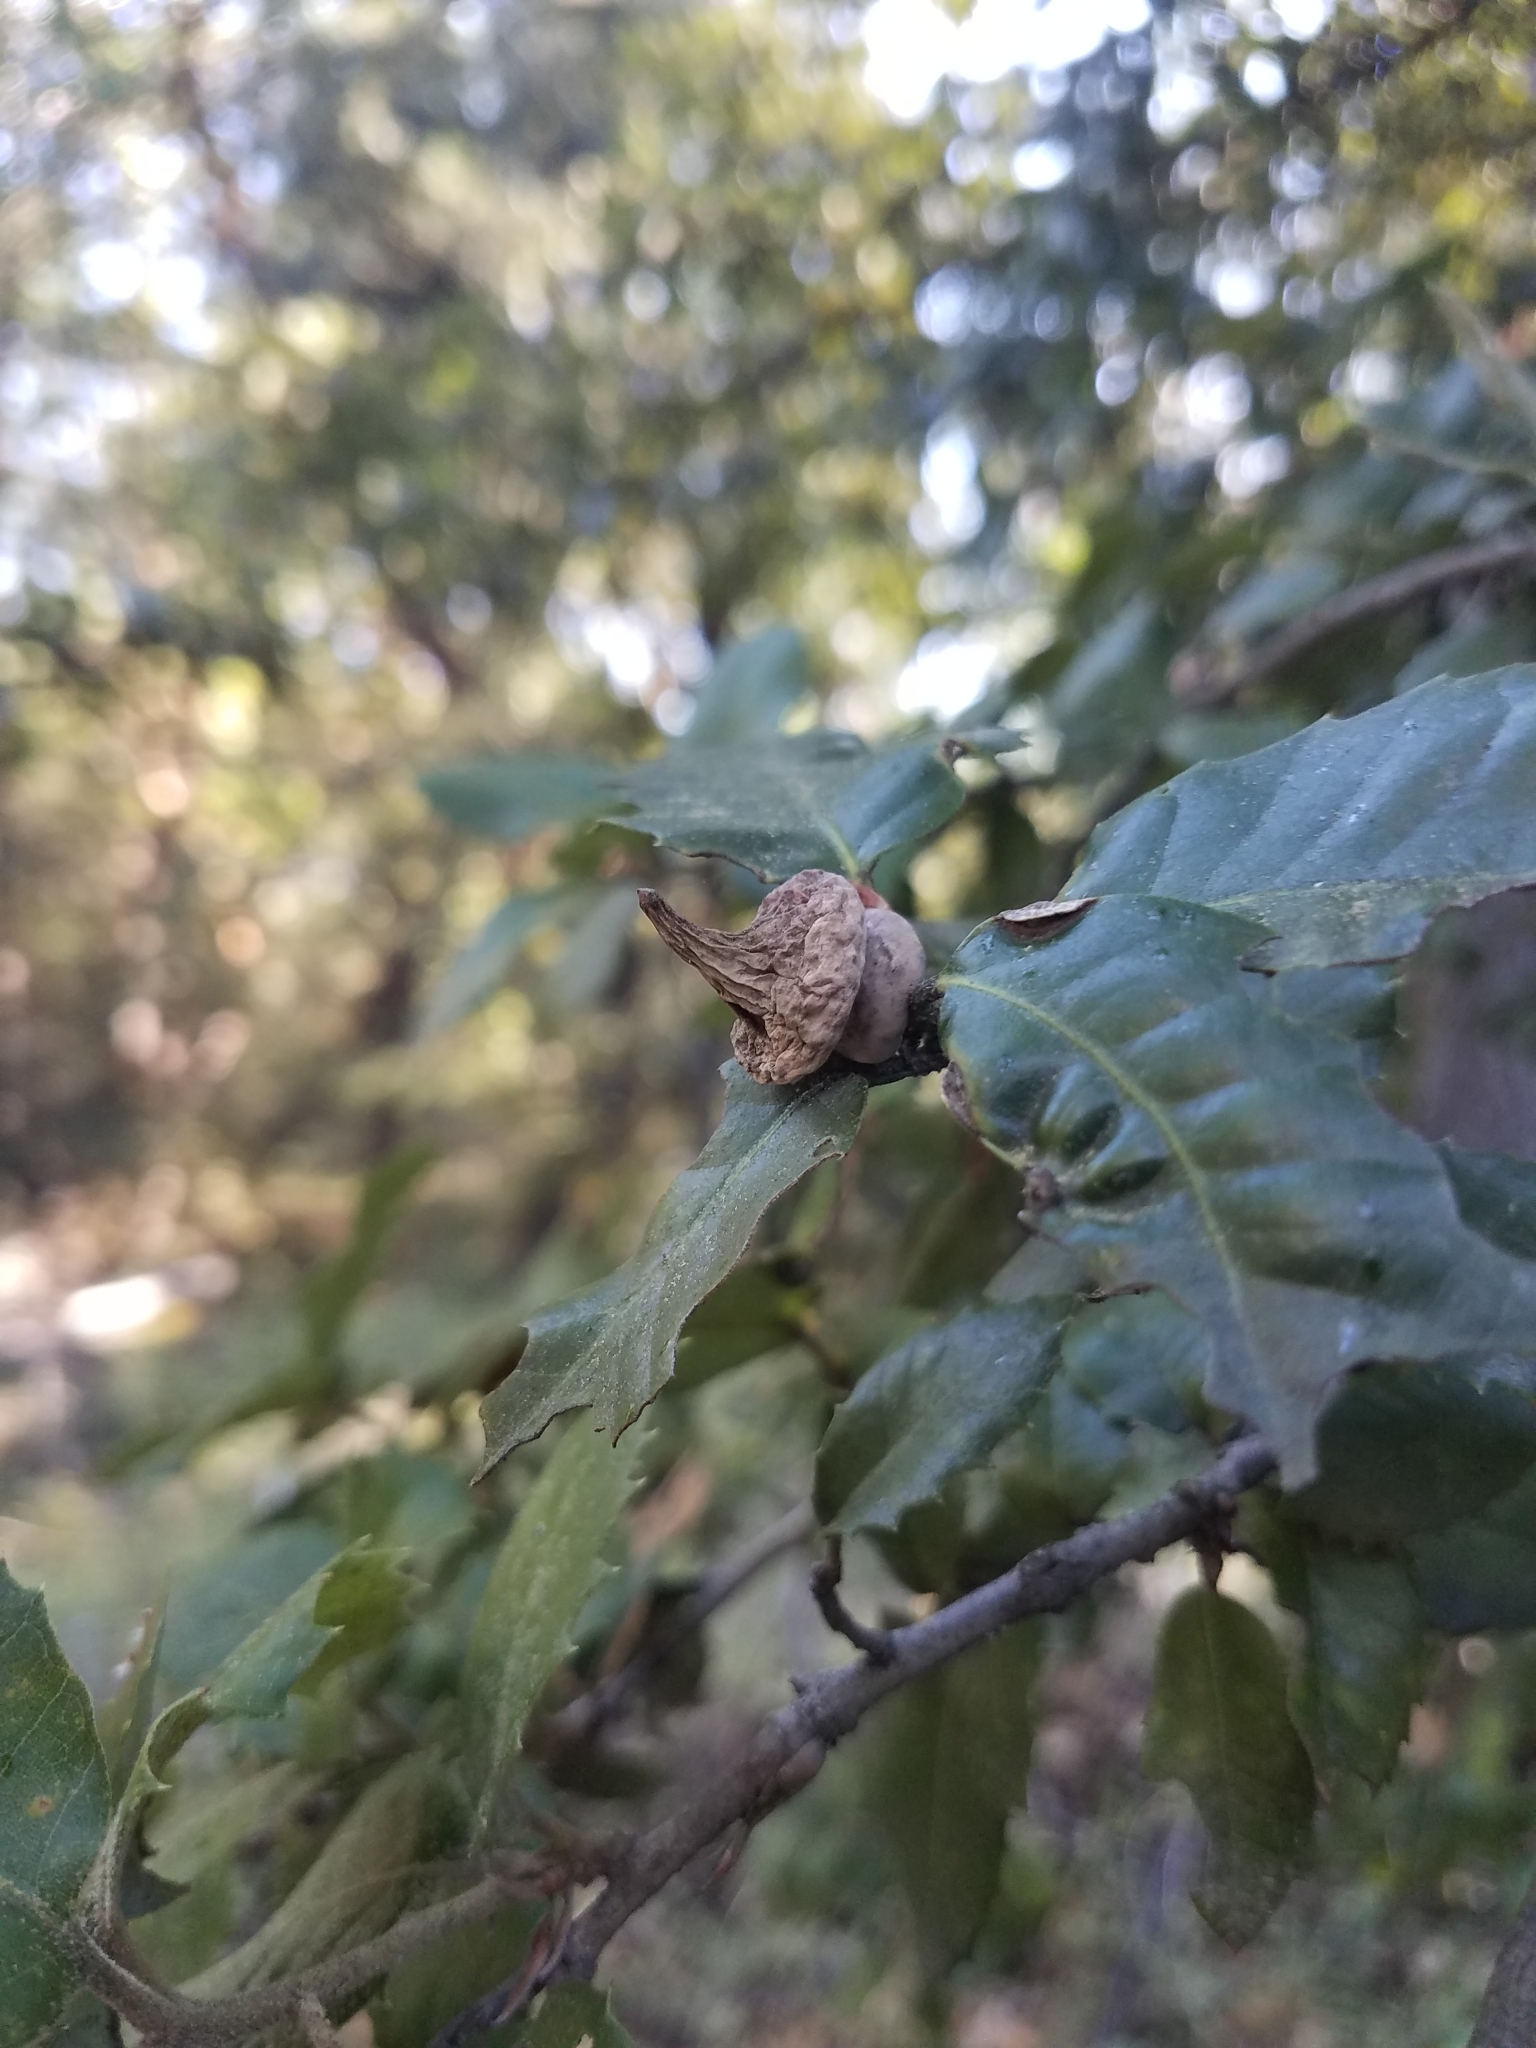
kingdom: Animalia
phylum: Arthropoda
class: Insecta
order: Hymenoptera
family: Cynipidae
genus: Heteroecus
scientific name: Heteroecus
